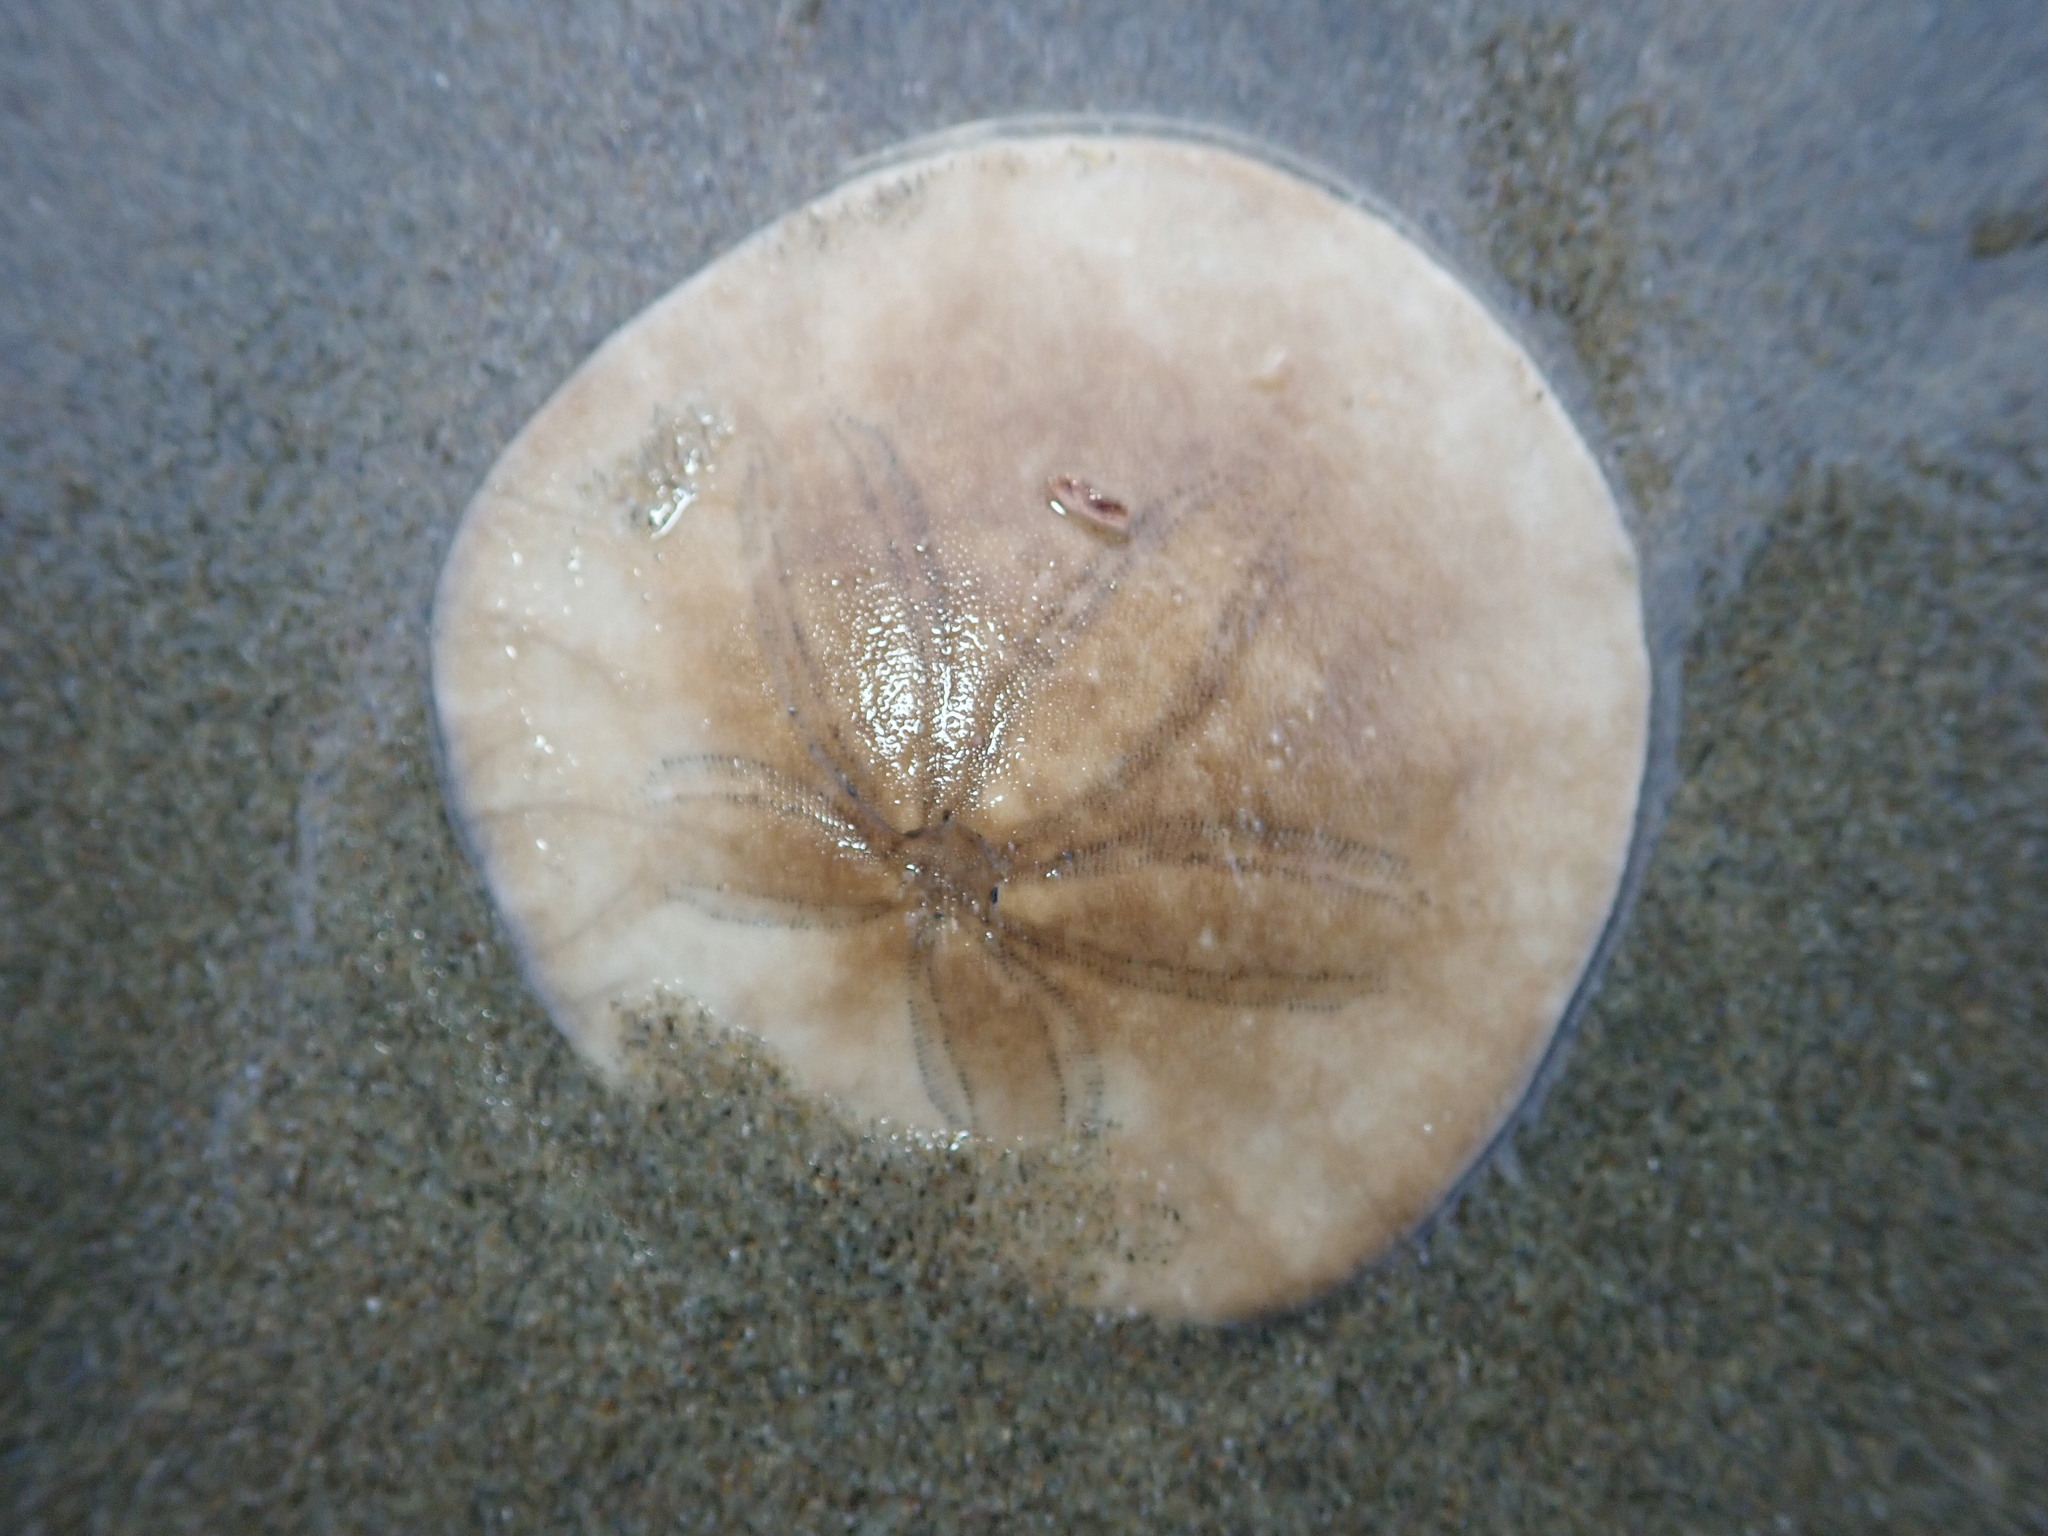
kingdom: Animalia
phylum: Echinodermata
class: Echinoidea
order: Echinolampadacea
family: Dendrasteridae
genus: Dendraster
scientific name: Dendraster excentricus
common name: Eccentric sand dollar sea urchin
